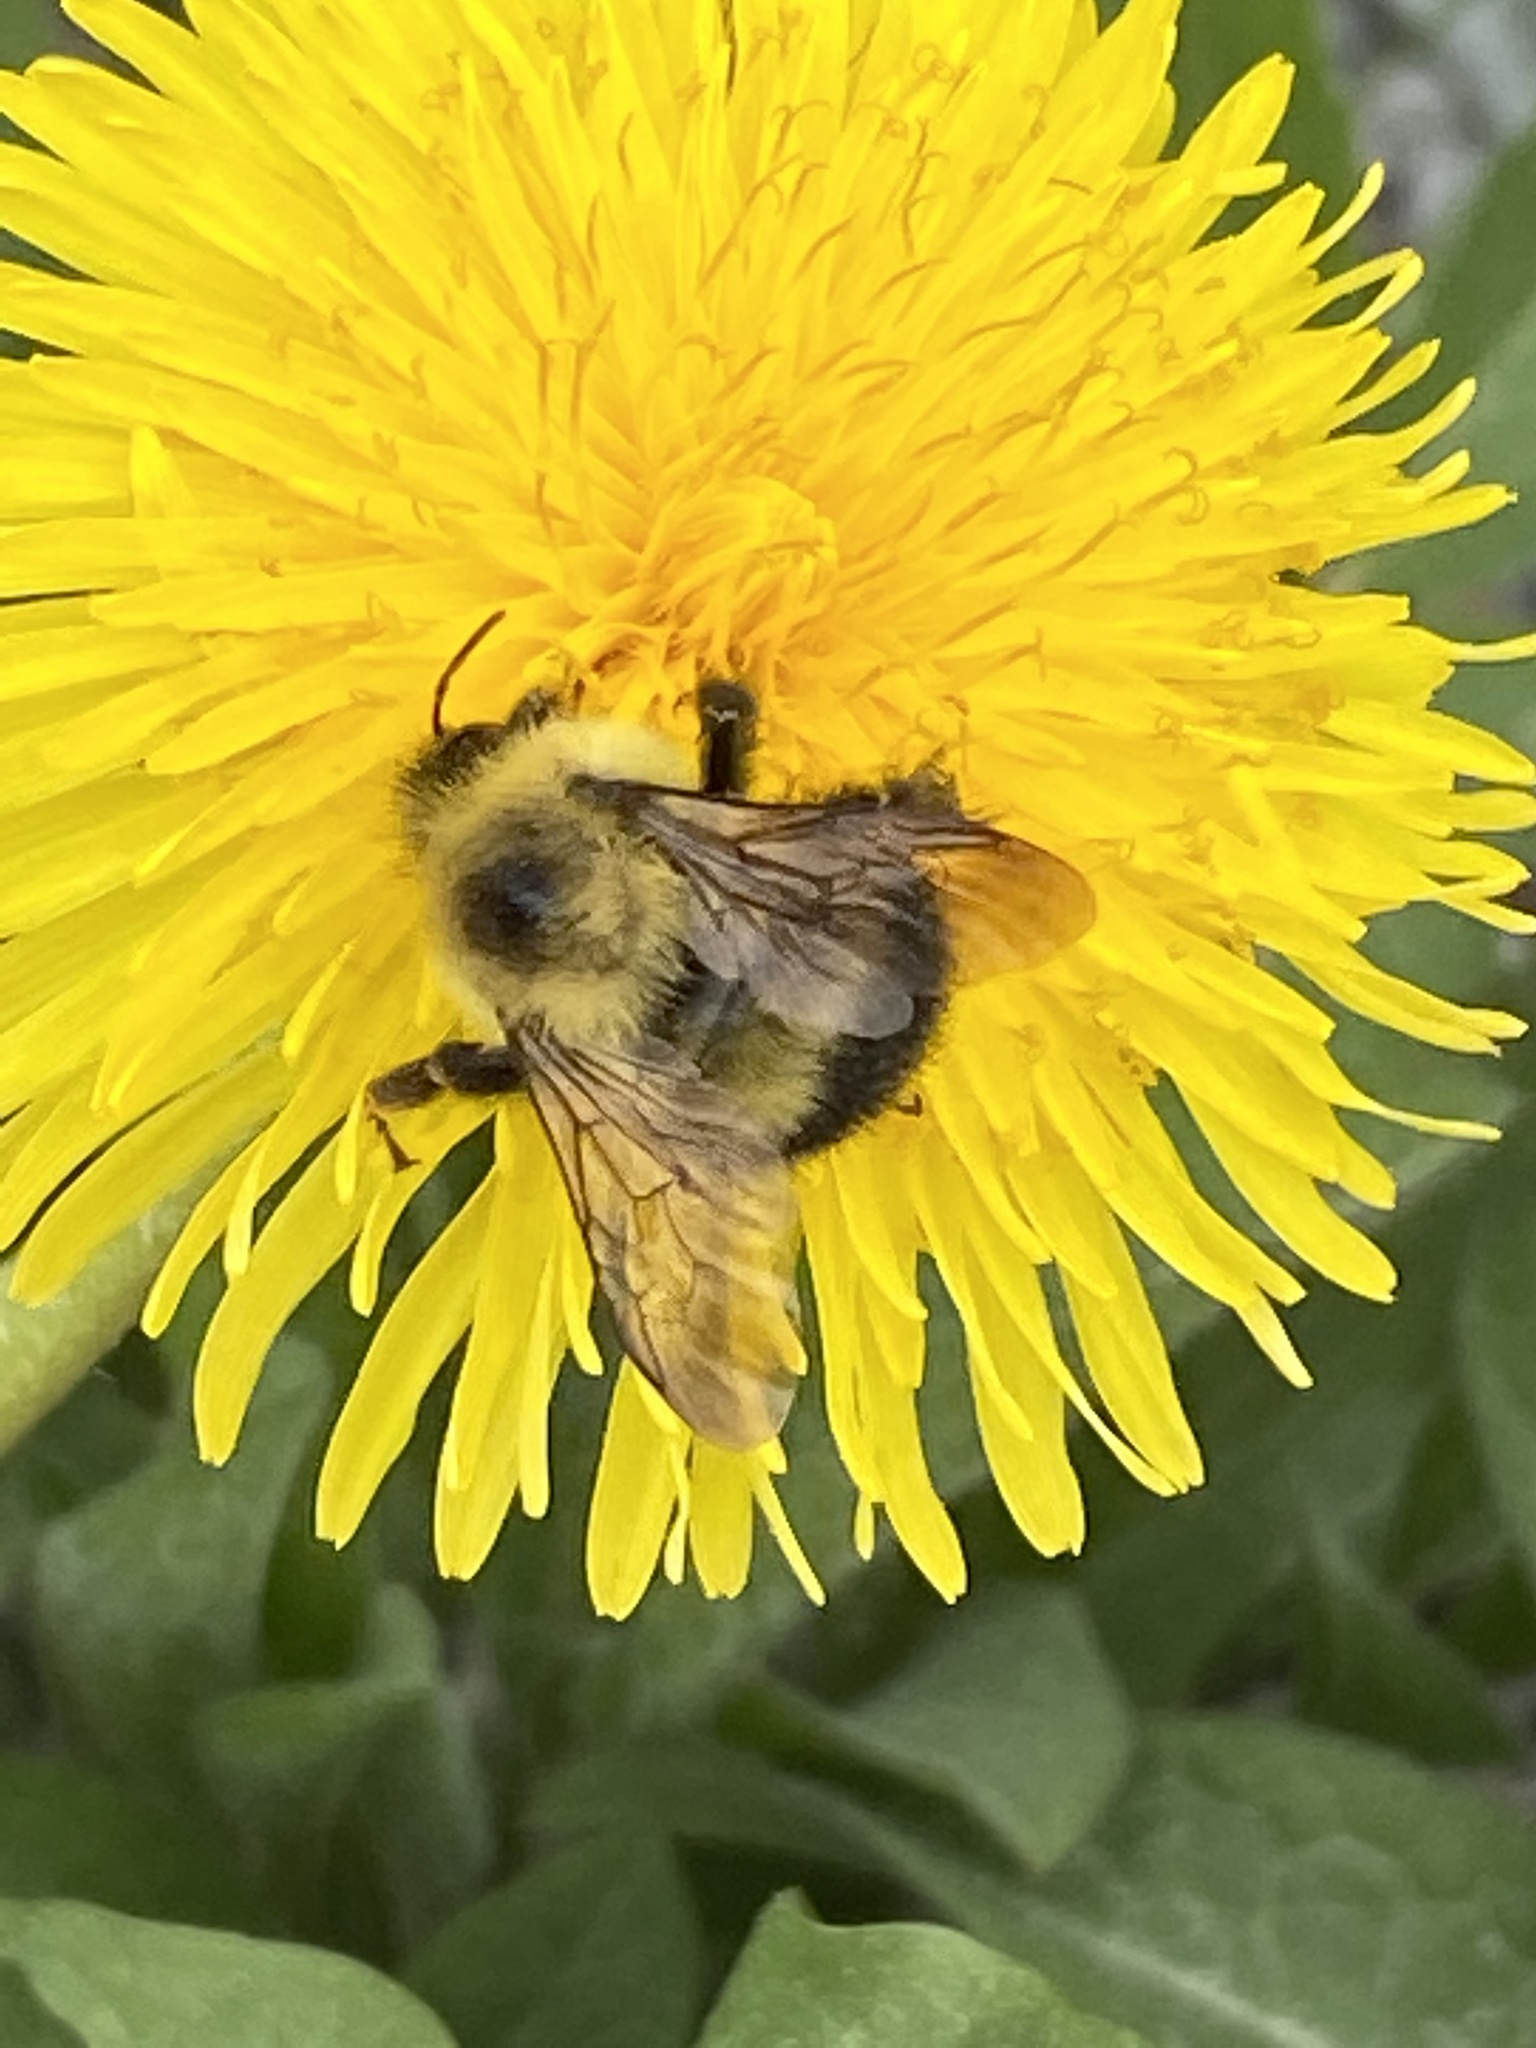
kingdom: Animalia
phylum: Arthropoda
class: Insecta
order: Hymenoptera
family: Apidae
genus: Pyrobombus
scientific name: Pyrobombus
